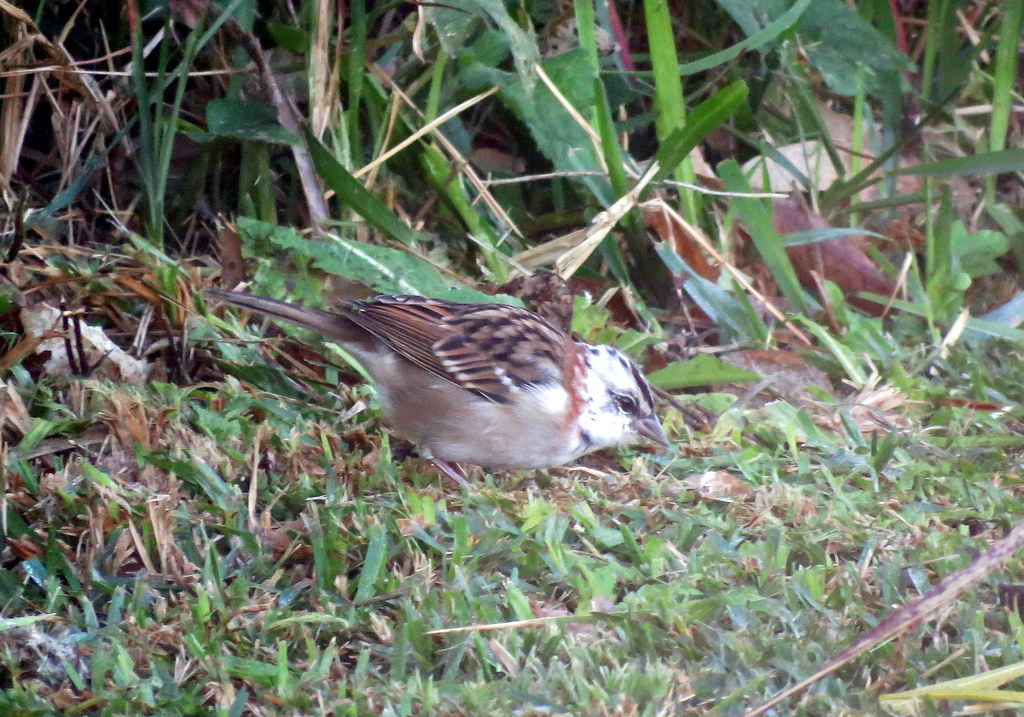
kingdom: Animalia
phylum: Chordata
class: Aves
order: Passeriformes
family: Passerellidae
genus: Zonotrichia
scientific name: Zonotrichia capensis
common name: Rufous-collared sparrow
